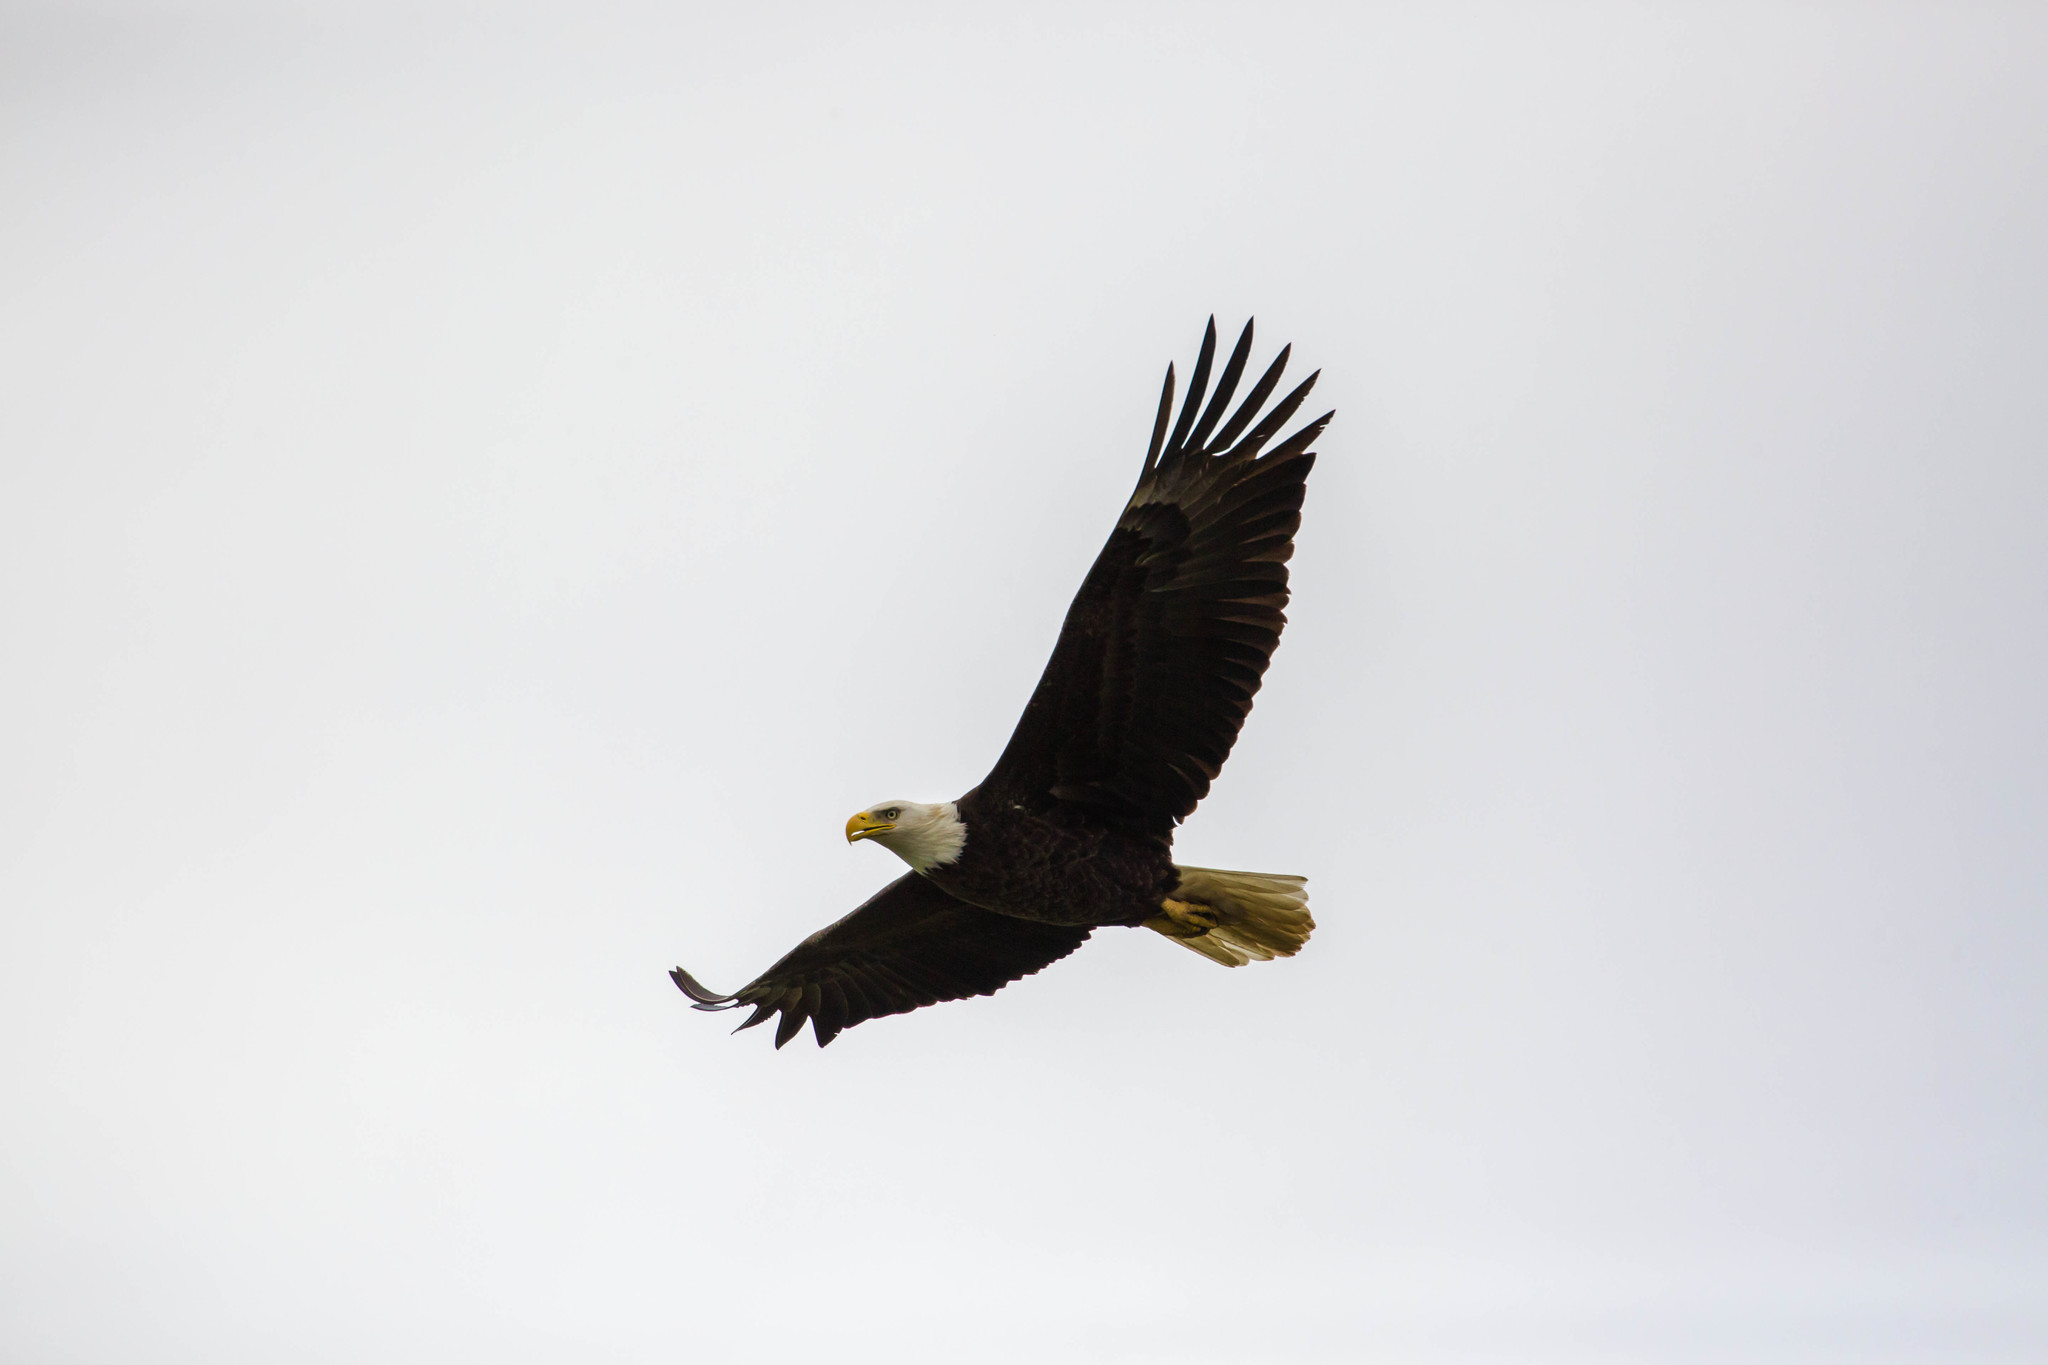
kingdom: Animalia
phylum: Chordata
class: Aves
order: Accipitriformes
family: Accipitridae
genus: Haliaeetus
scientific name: Haliaeetus leucocephalus
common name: Bald eagle
